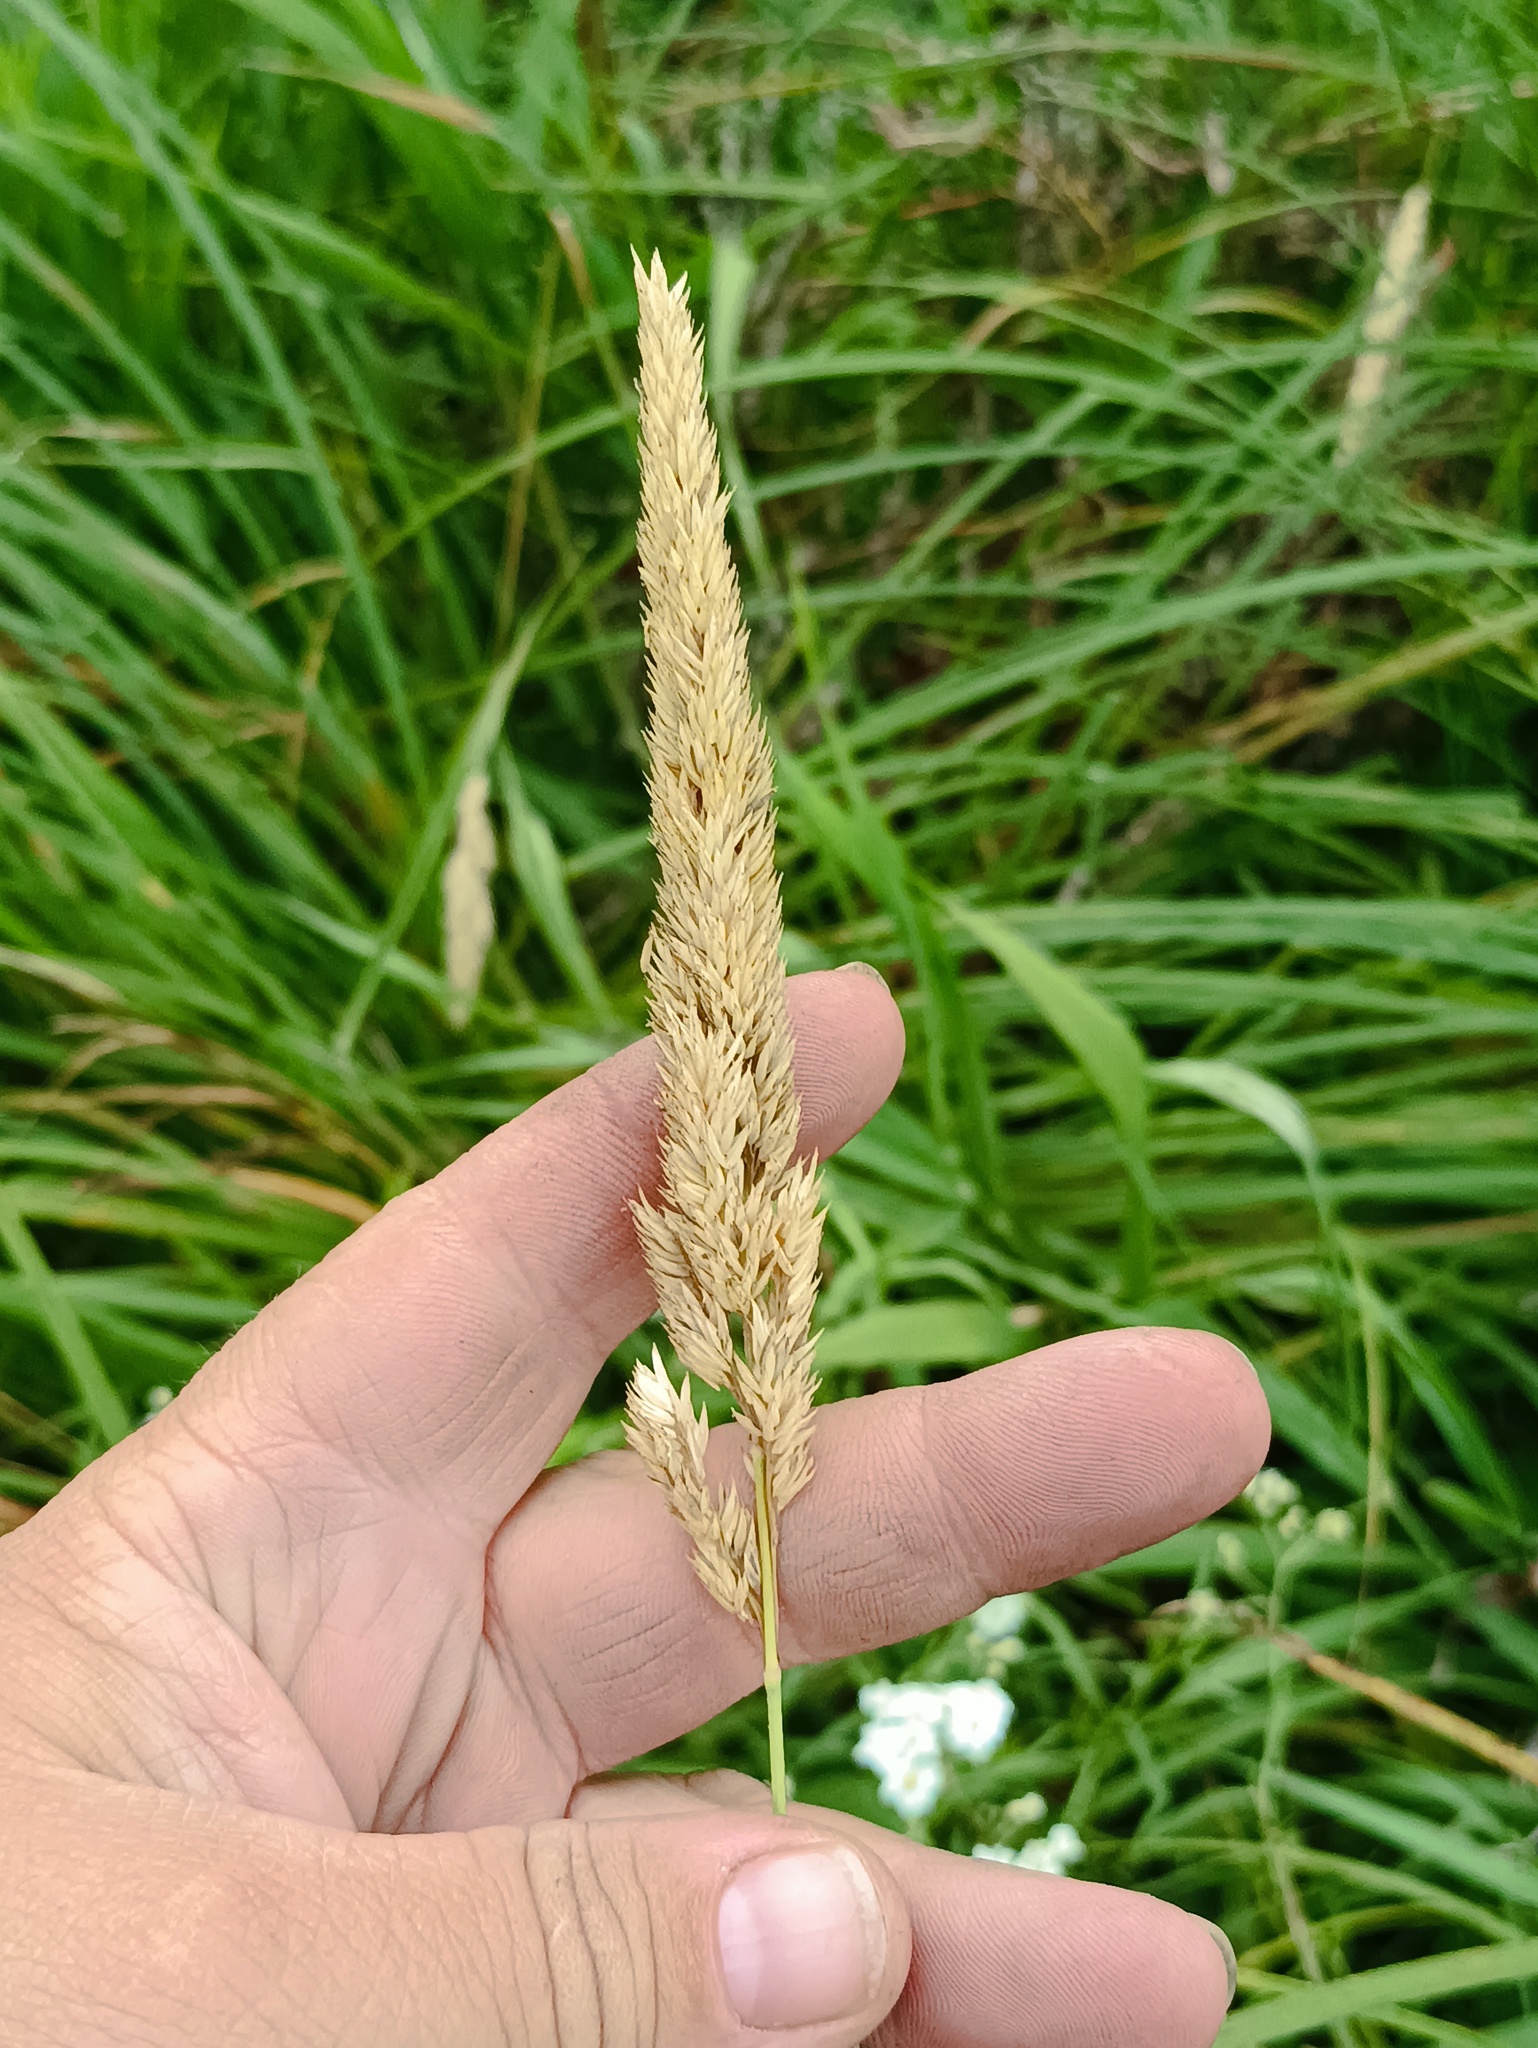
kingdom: Plantae
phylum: Tracheophyta
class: Liliopsida
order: Poales
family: Poaceae
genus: Phalaris
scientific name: Phalaris arundinacea
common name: Reed canary-grass
